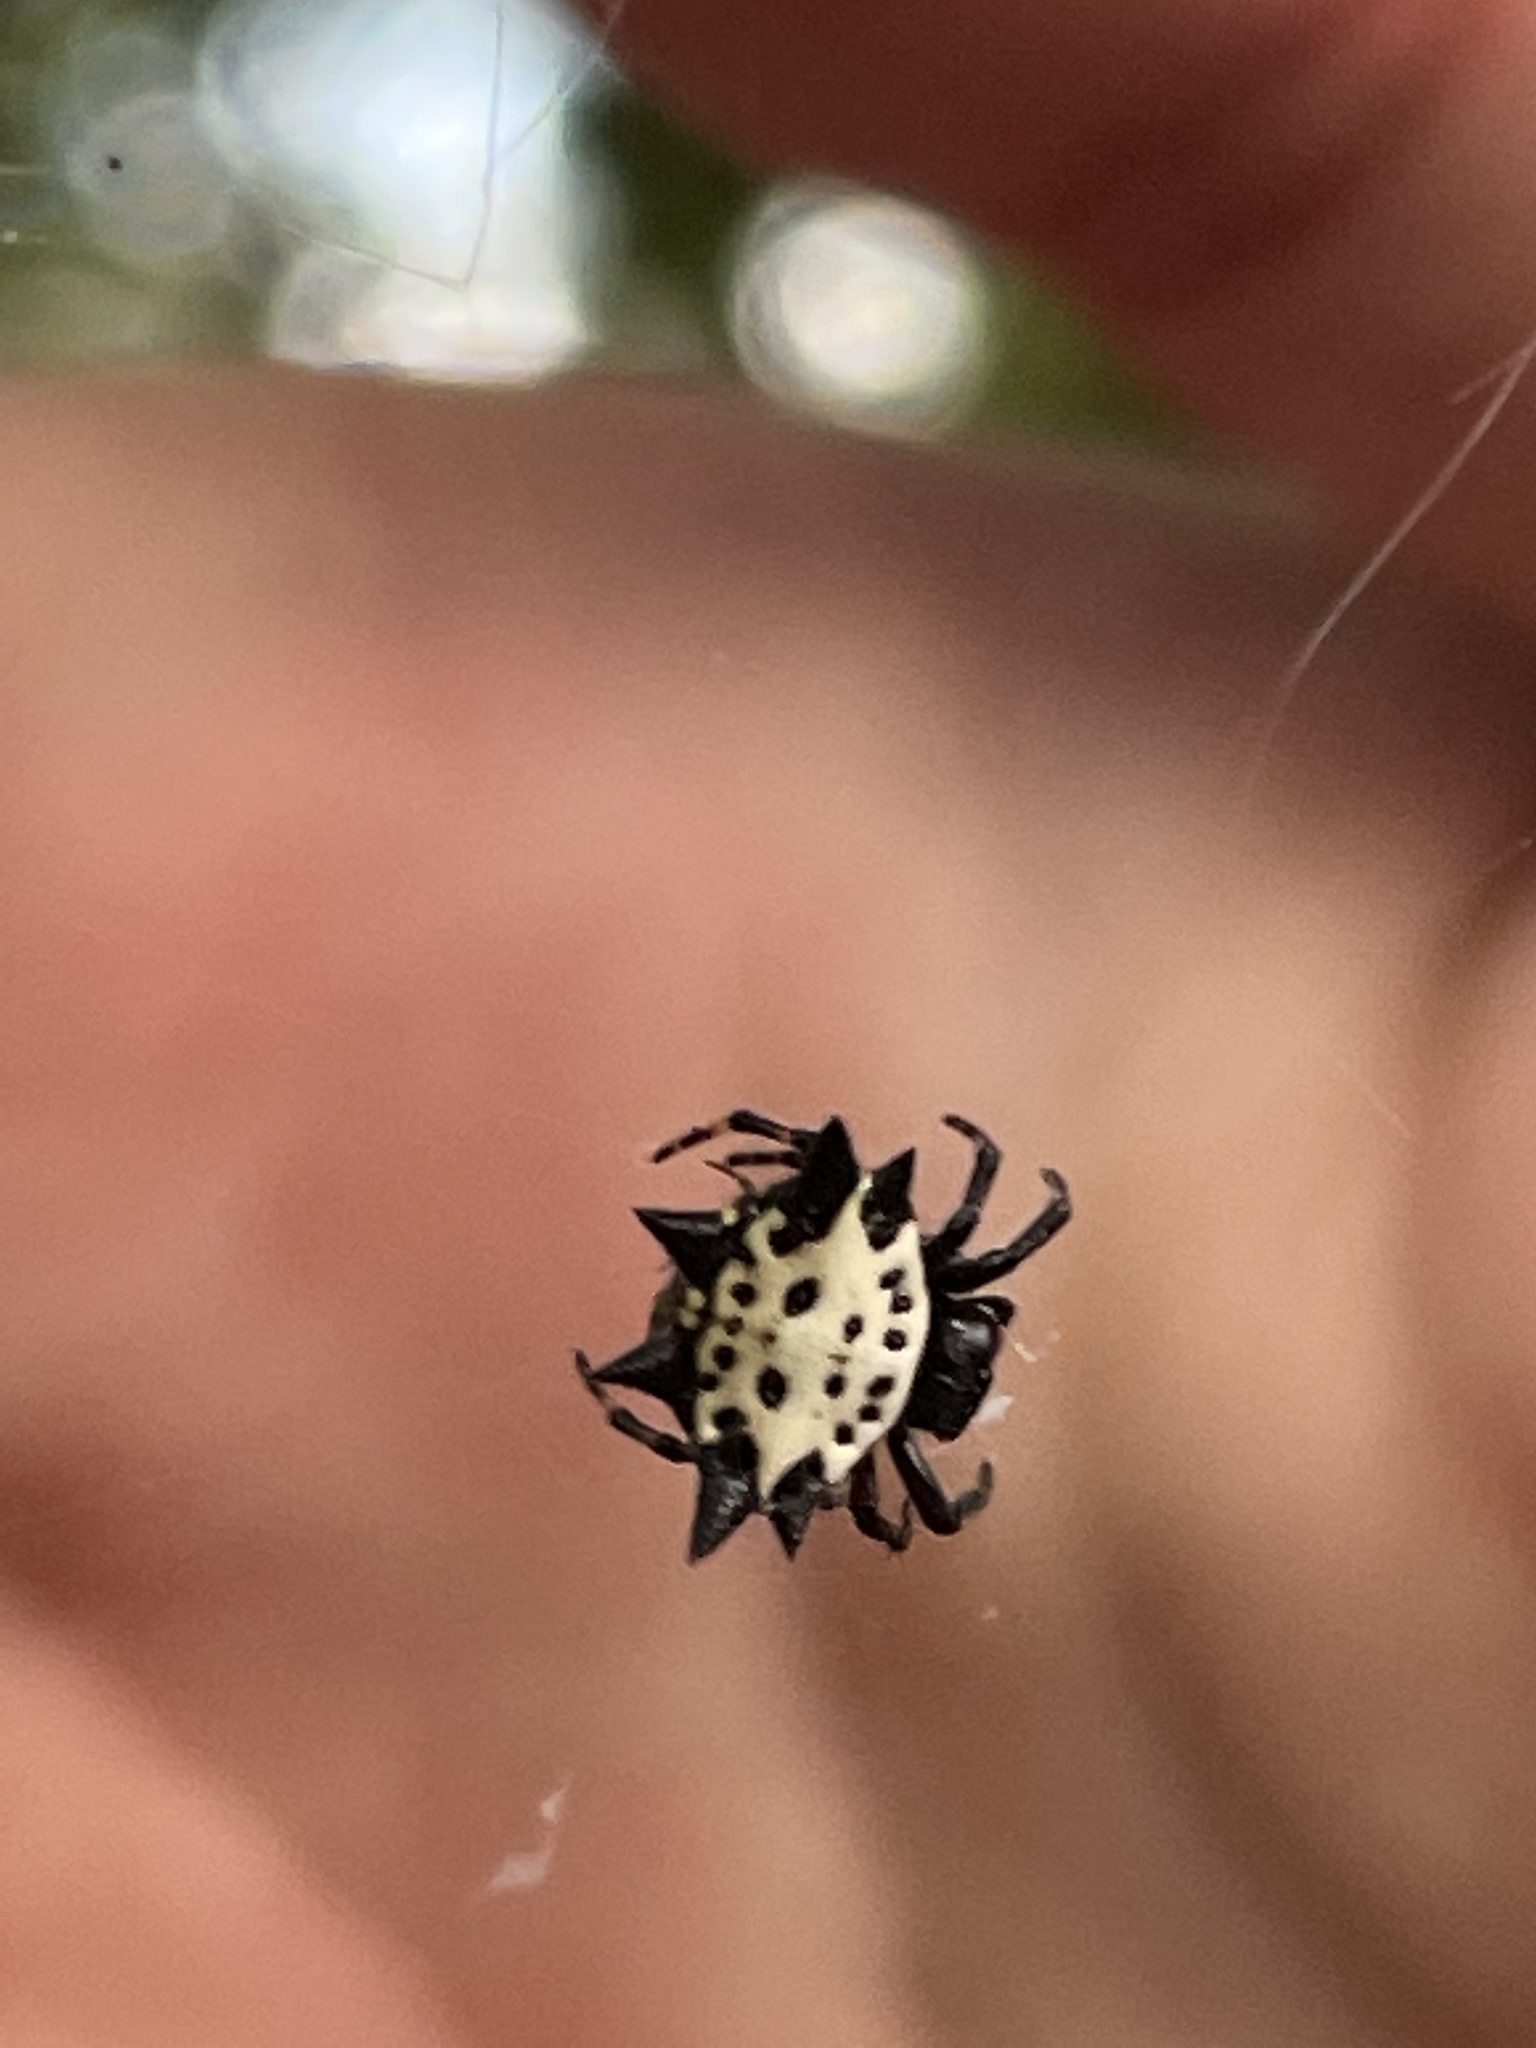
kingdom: Animalia
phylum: Arthropoda
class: Arachnida
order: Araneae
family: Araneidae
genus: Gasteracantha
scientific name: Gasteracantha cancriformis
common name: Orb weavers
